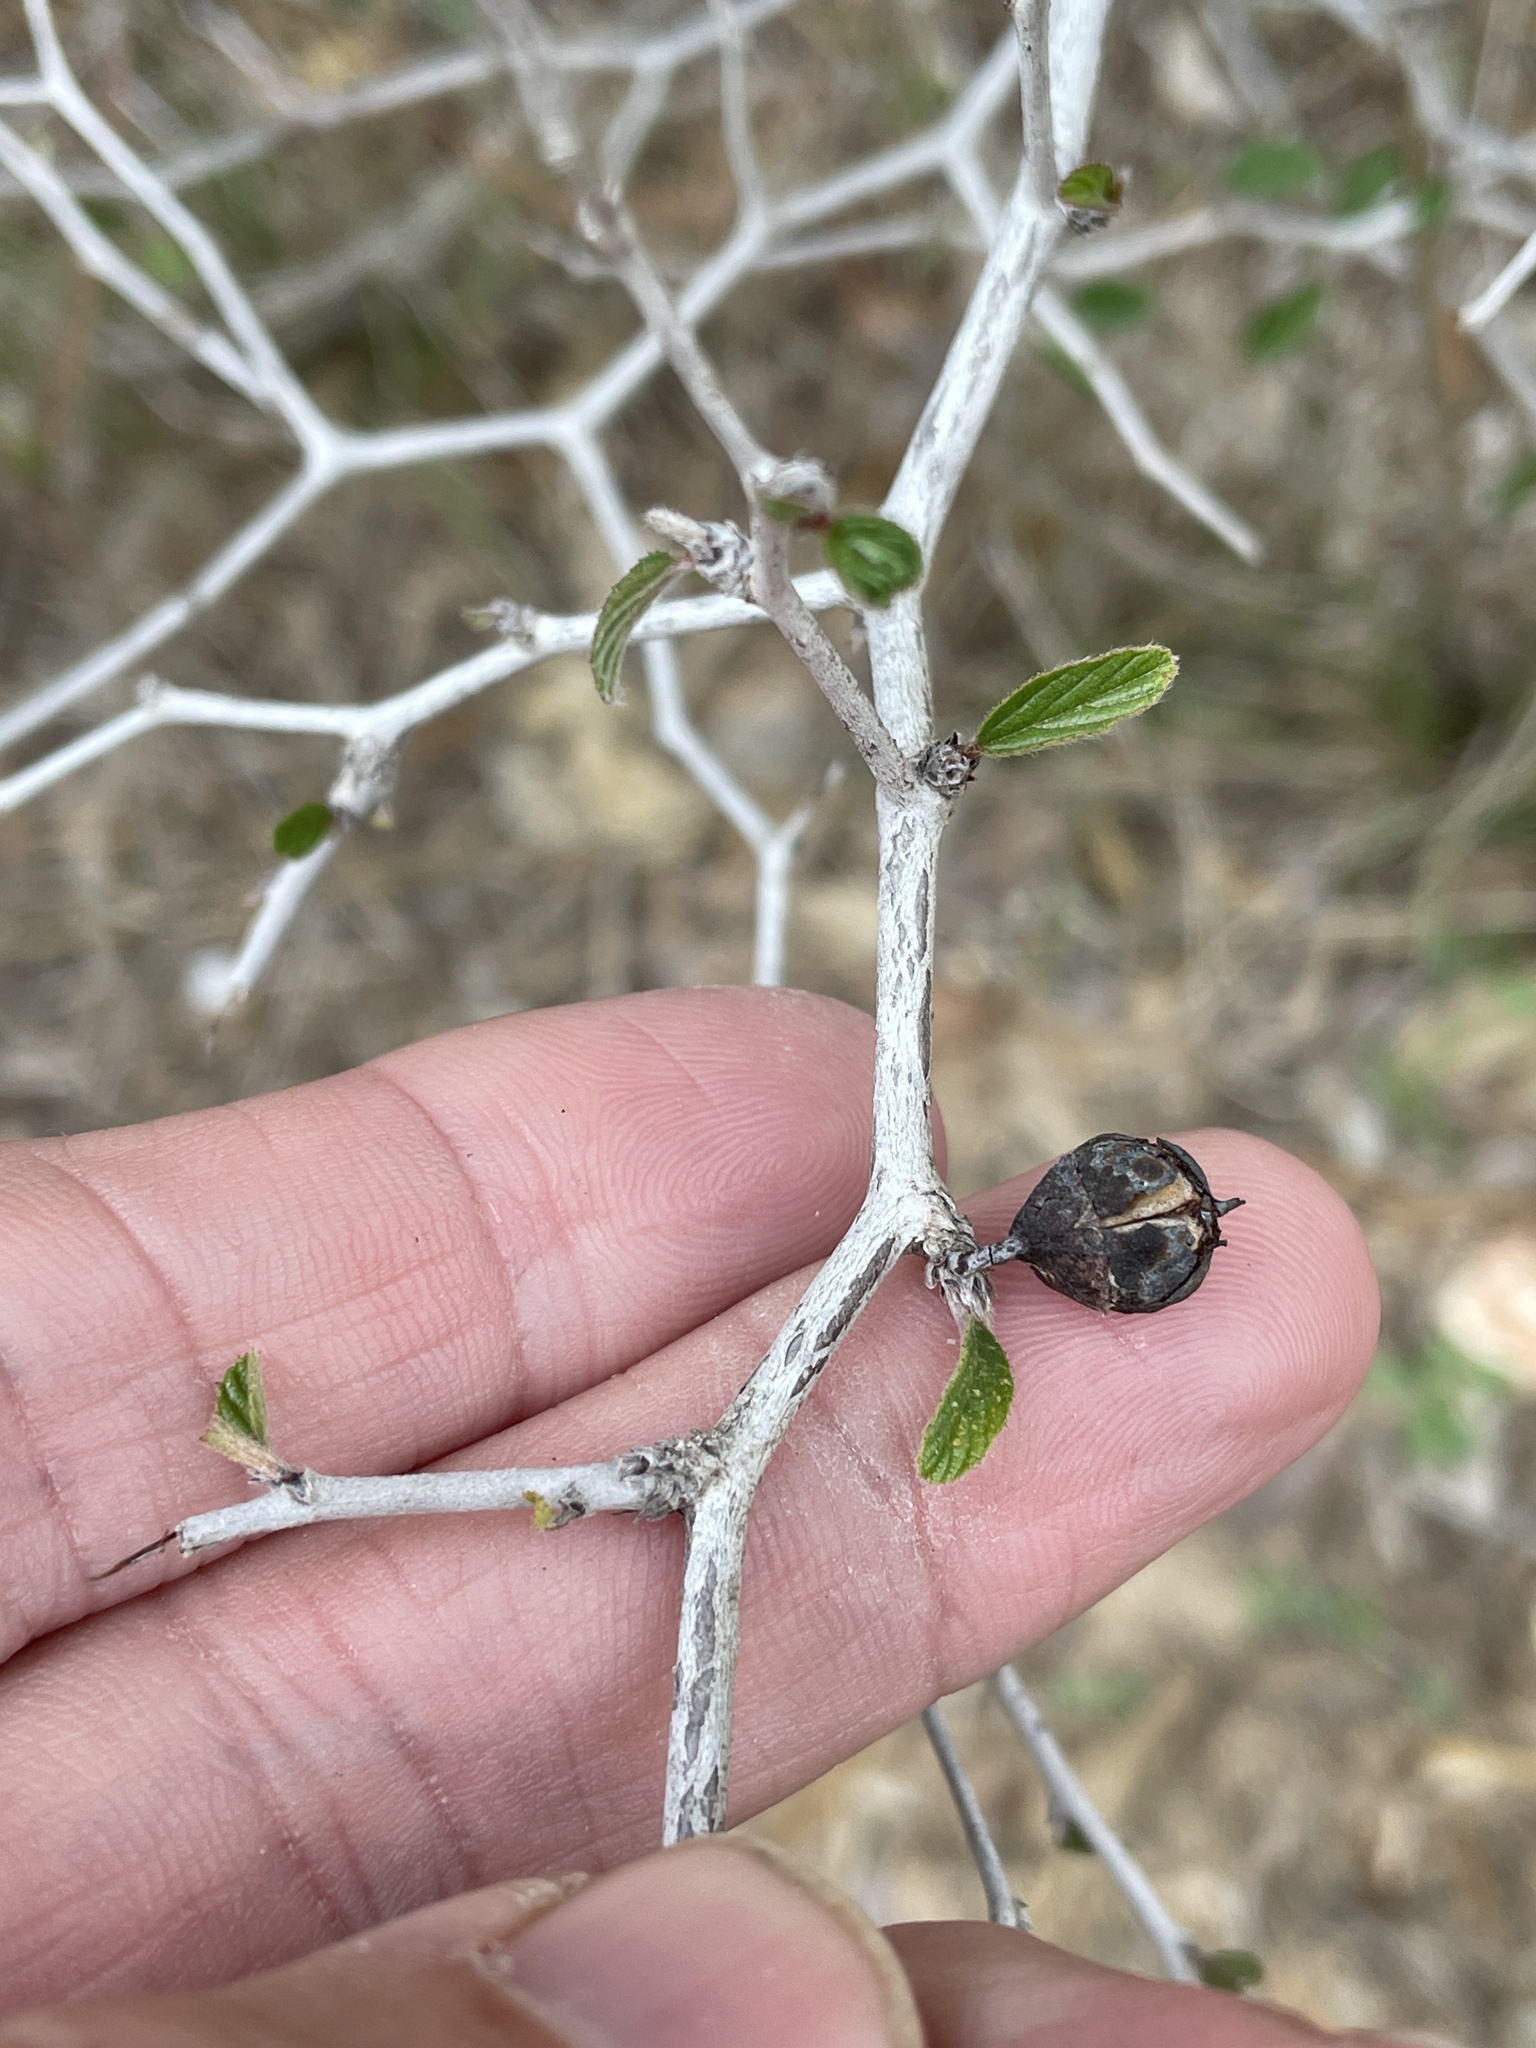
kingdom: Plantae
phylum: Tracheophyta
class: Magnoliopsida
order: Rosales
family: Rhamnaceae
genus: Colubrina
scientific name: Colubrina texensis
